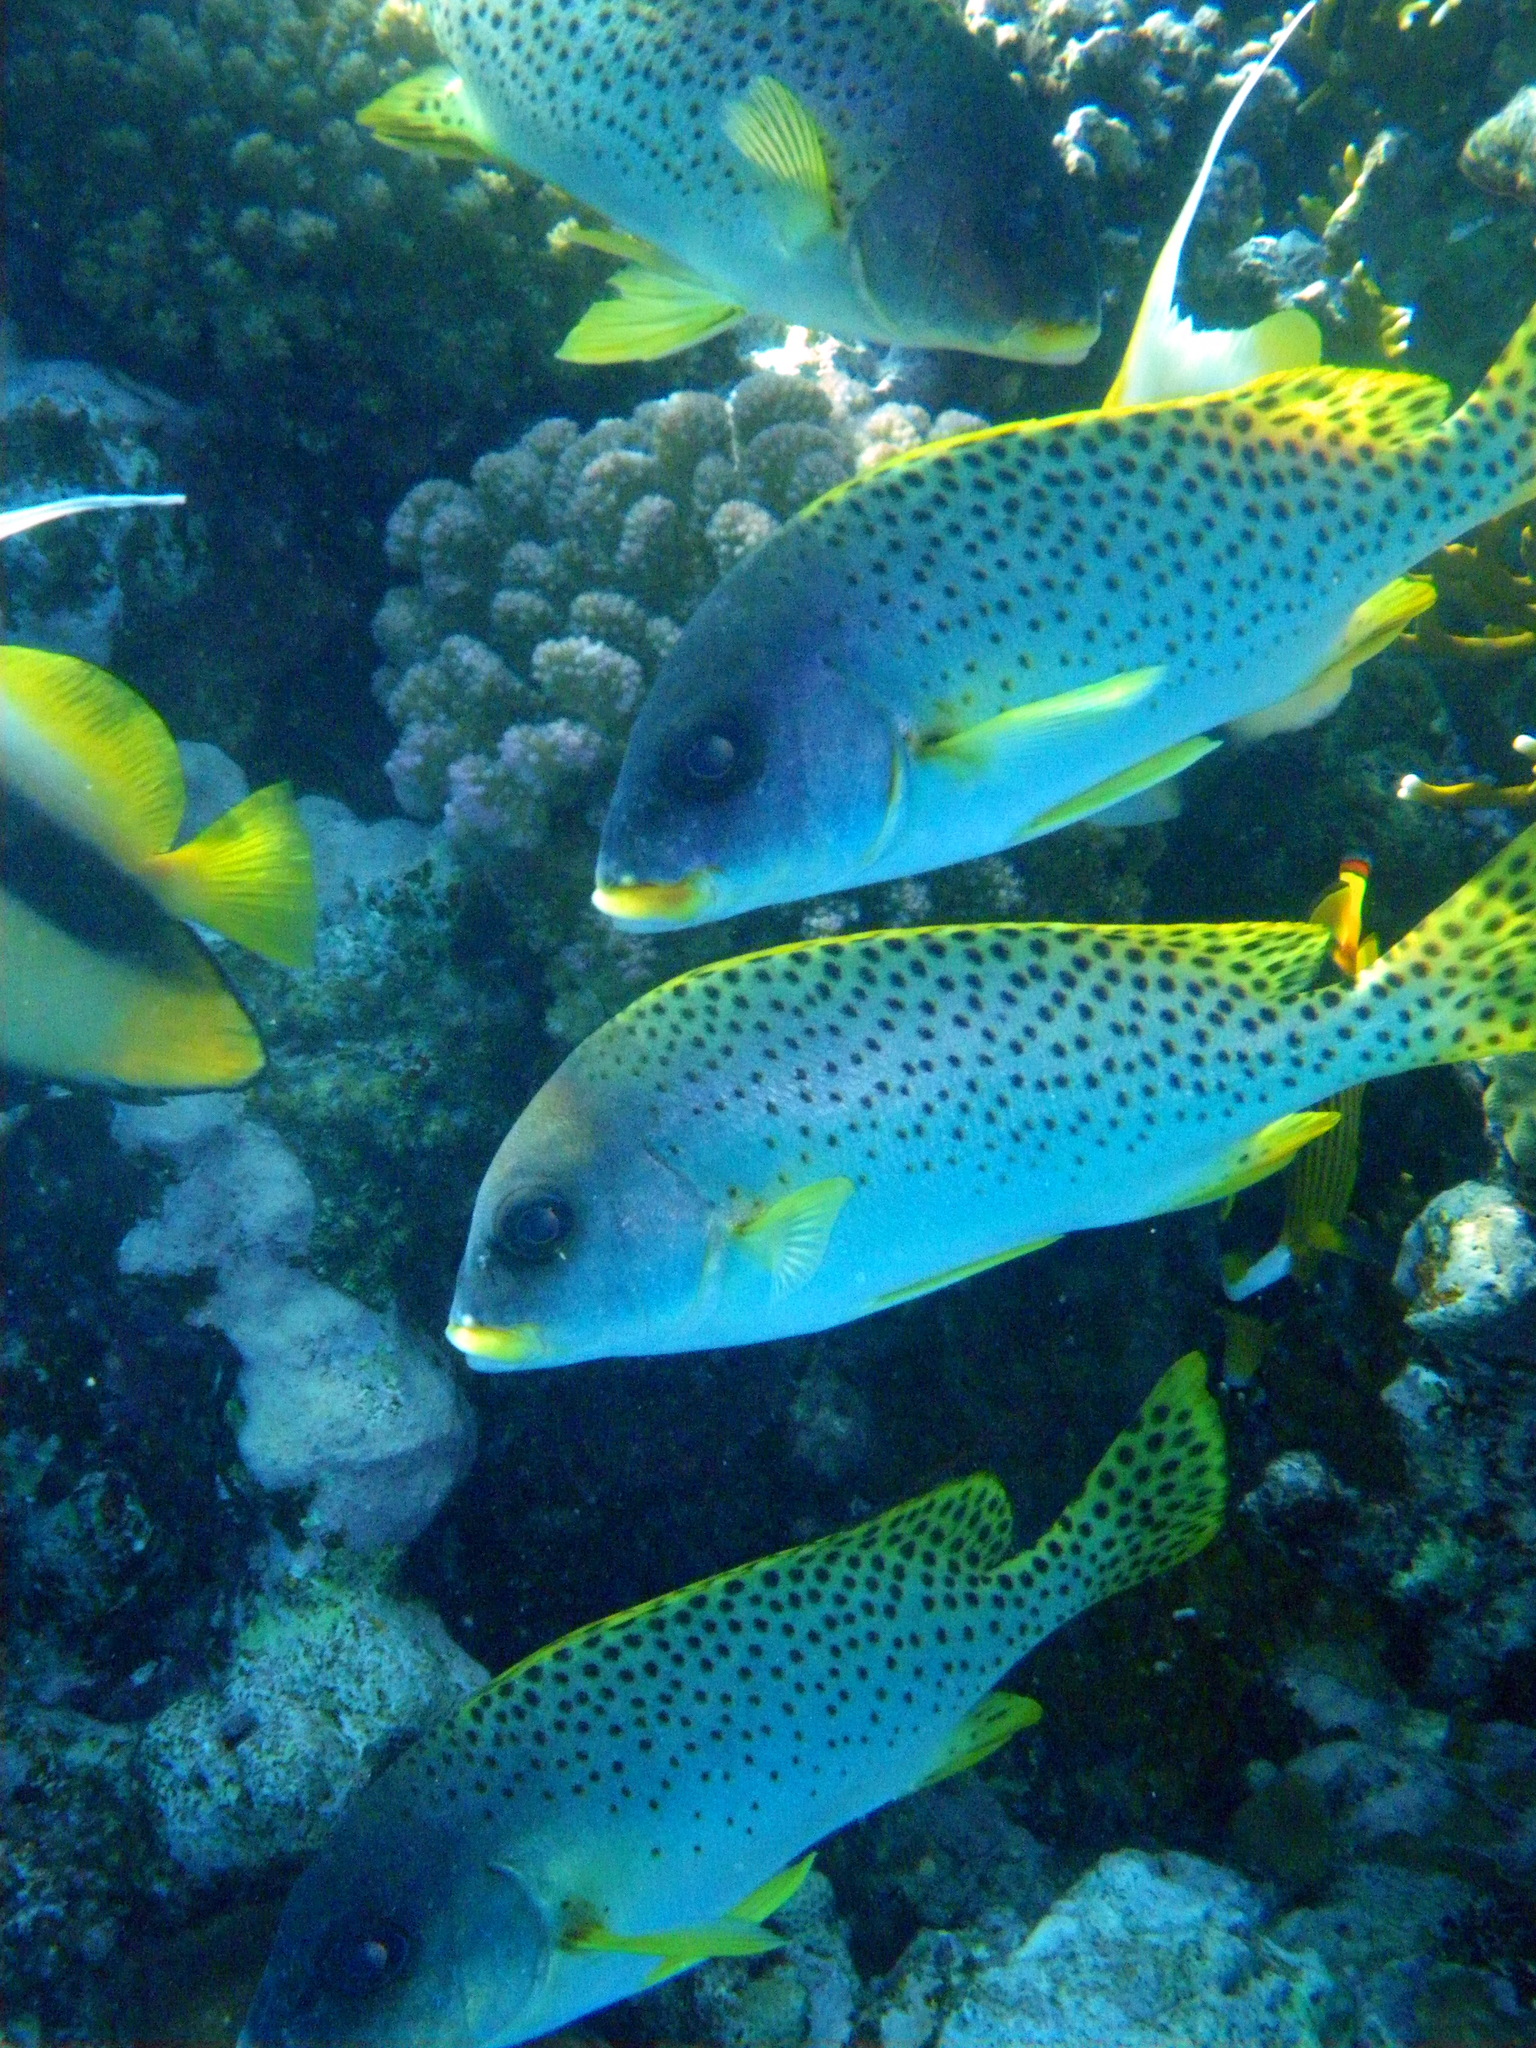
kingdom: Animalia
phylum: Chordata
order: Perciformes
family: Haemulidae
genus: Plectorhinchus
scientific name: Plectorhinchus gaterinus
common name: Blackspotted rubberlip
